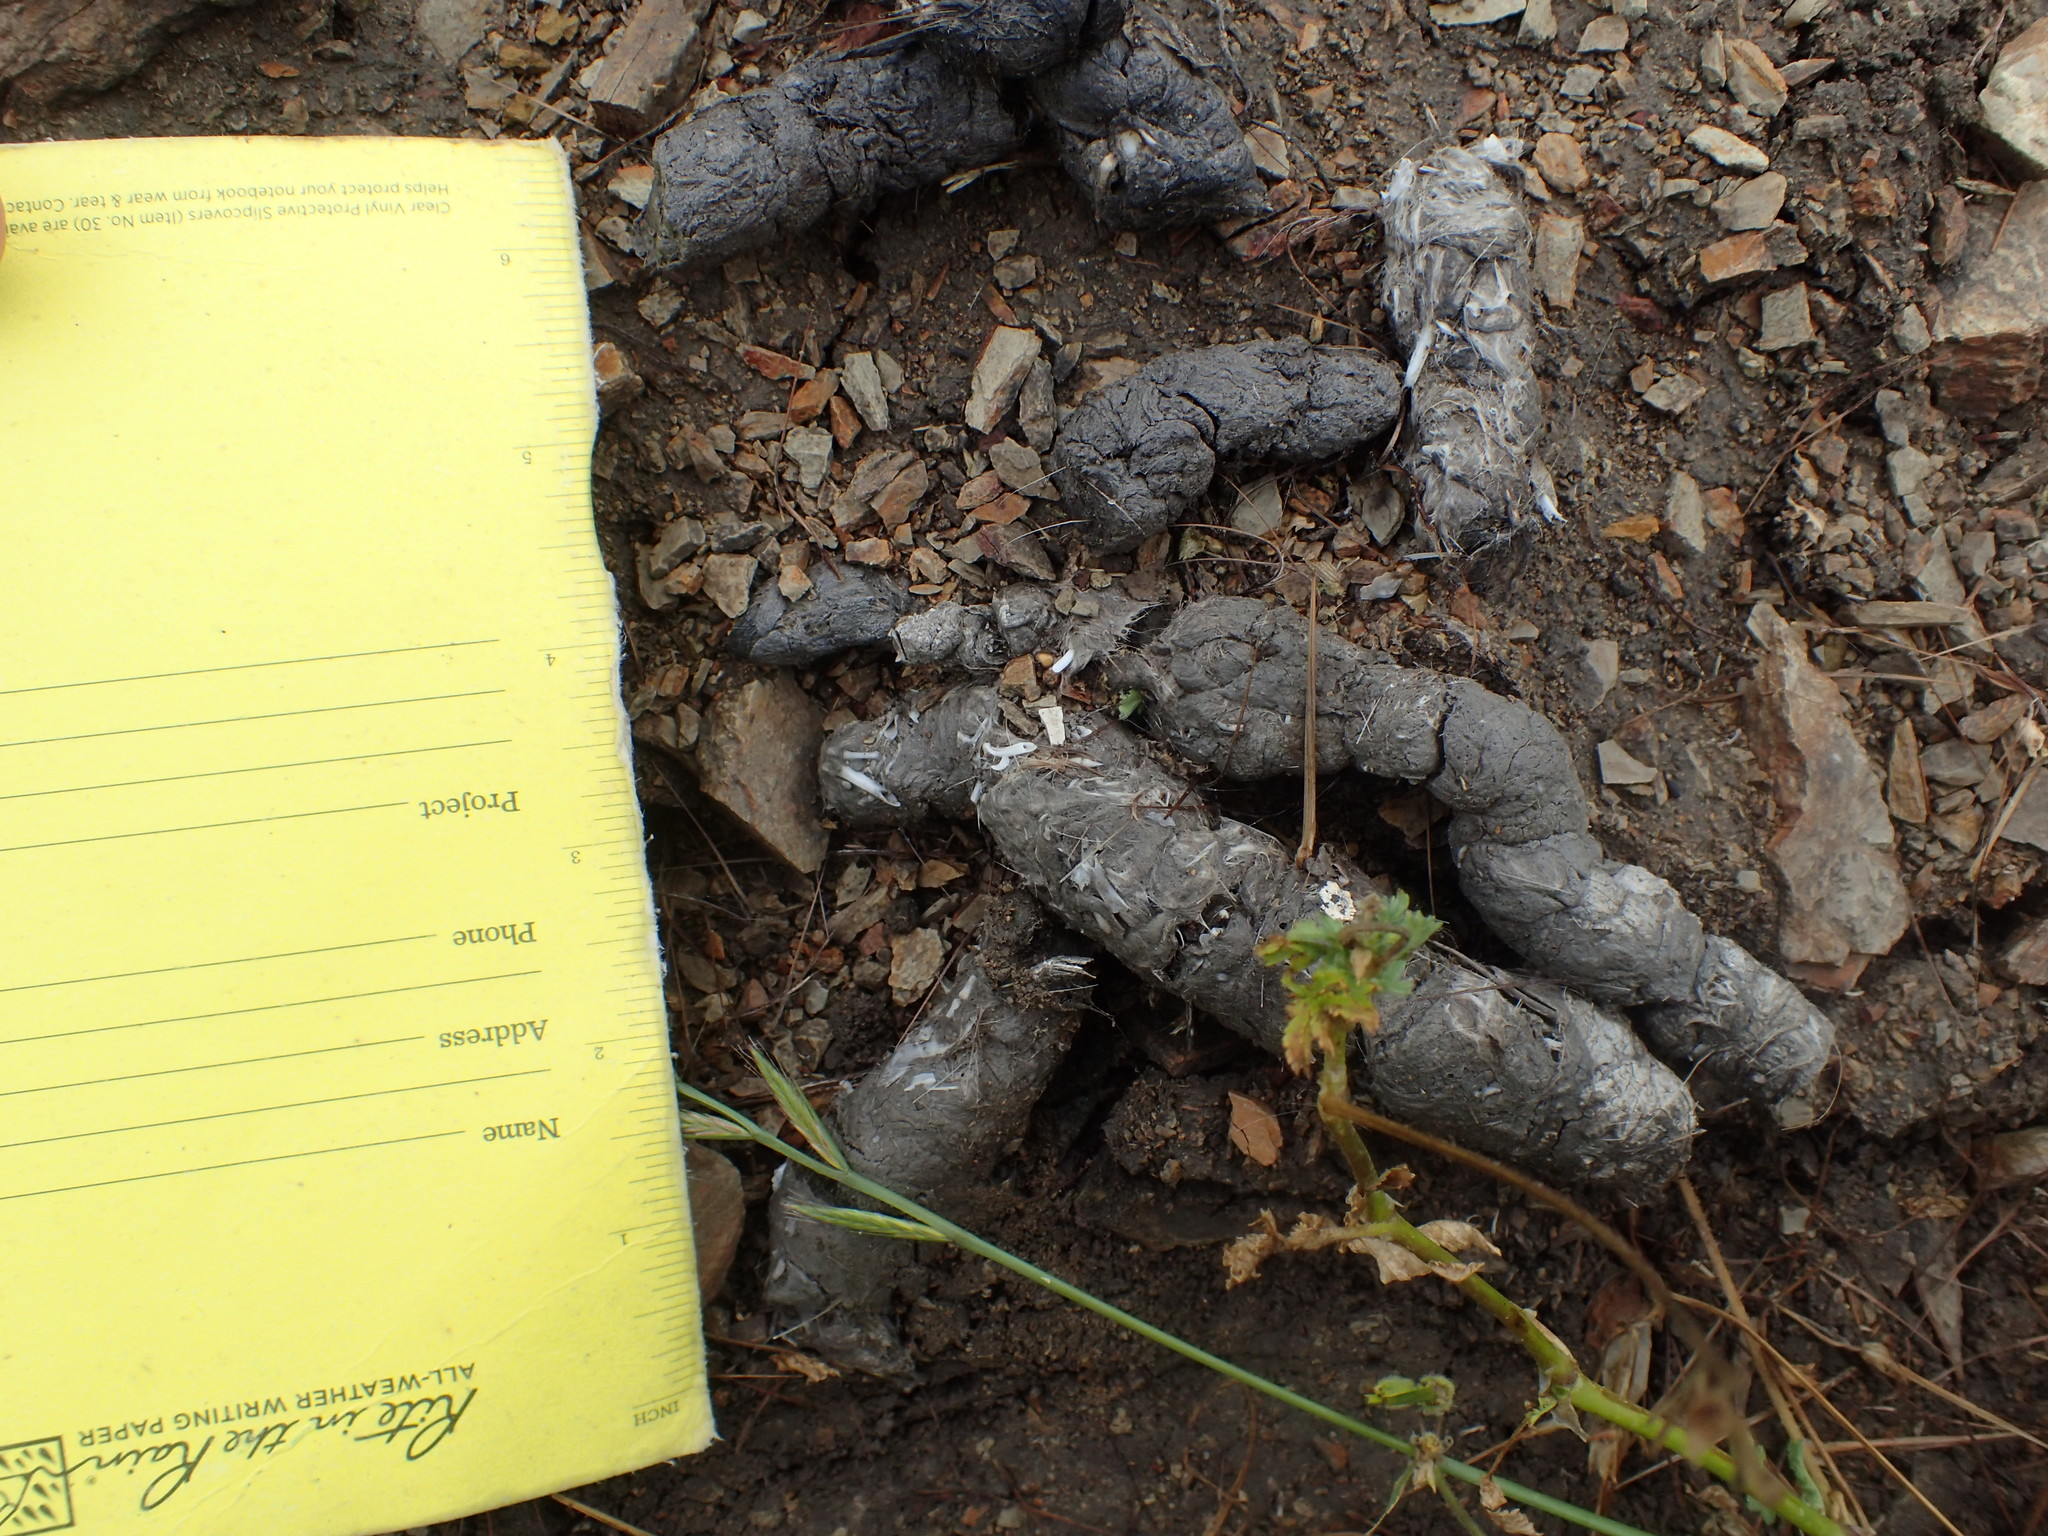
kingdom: Animalia
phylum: Chordata
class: Mammalia
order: Carnivora
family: Felidae
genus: Lynx
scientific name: Lynx rufus
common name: Bobcat
